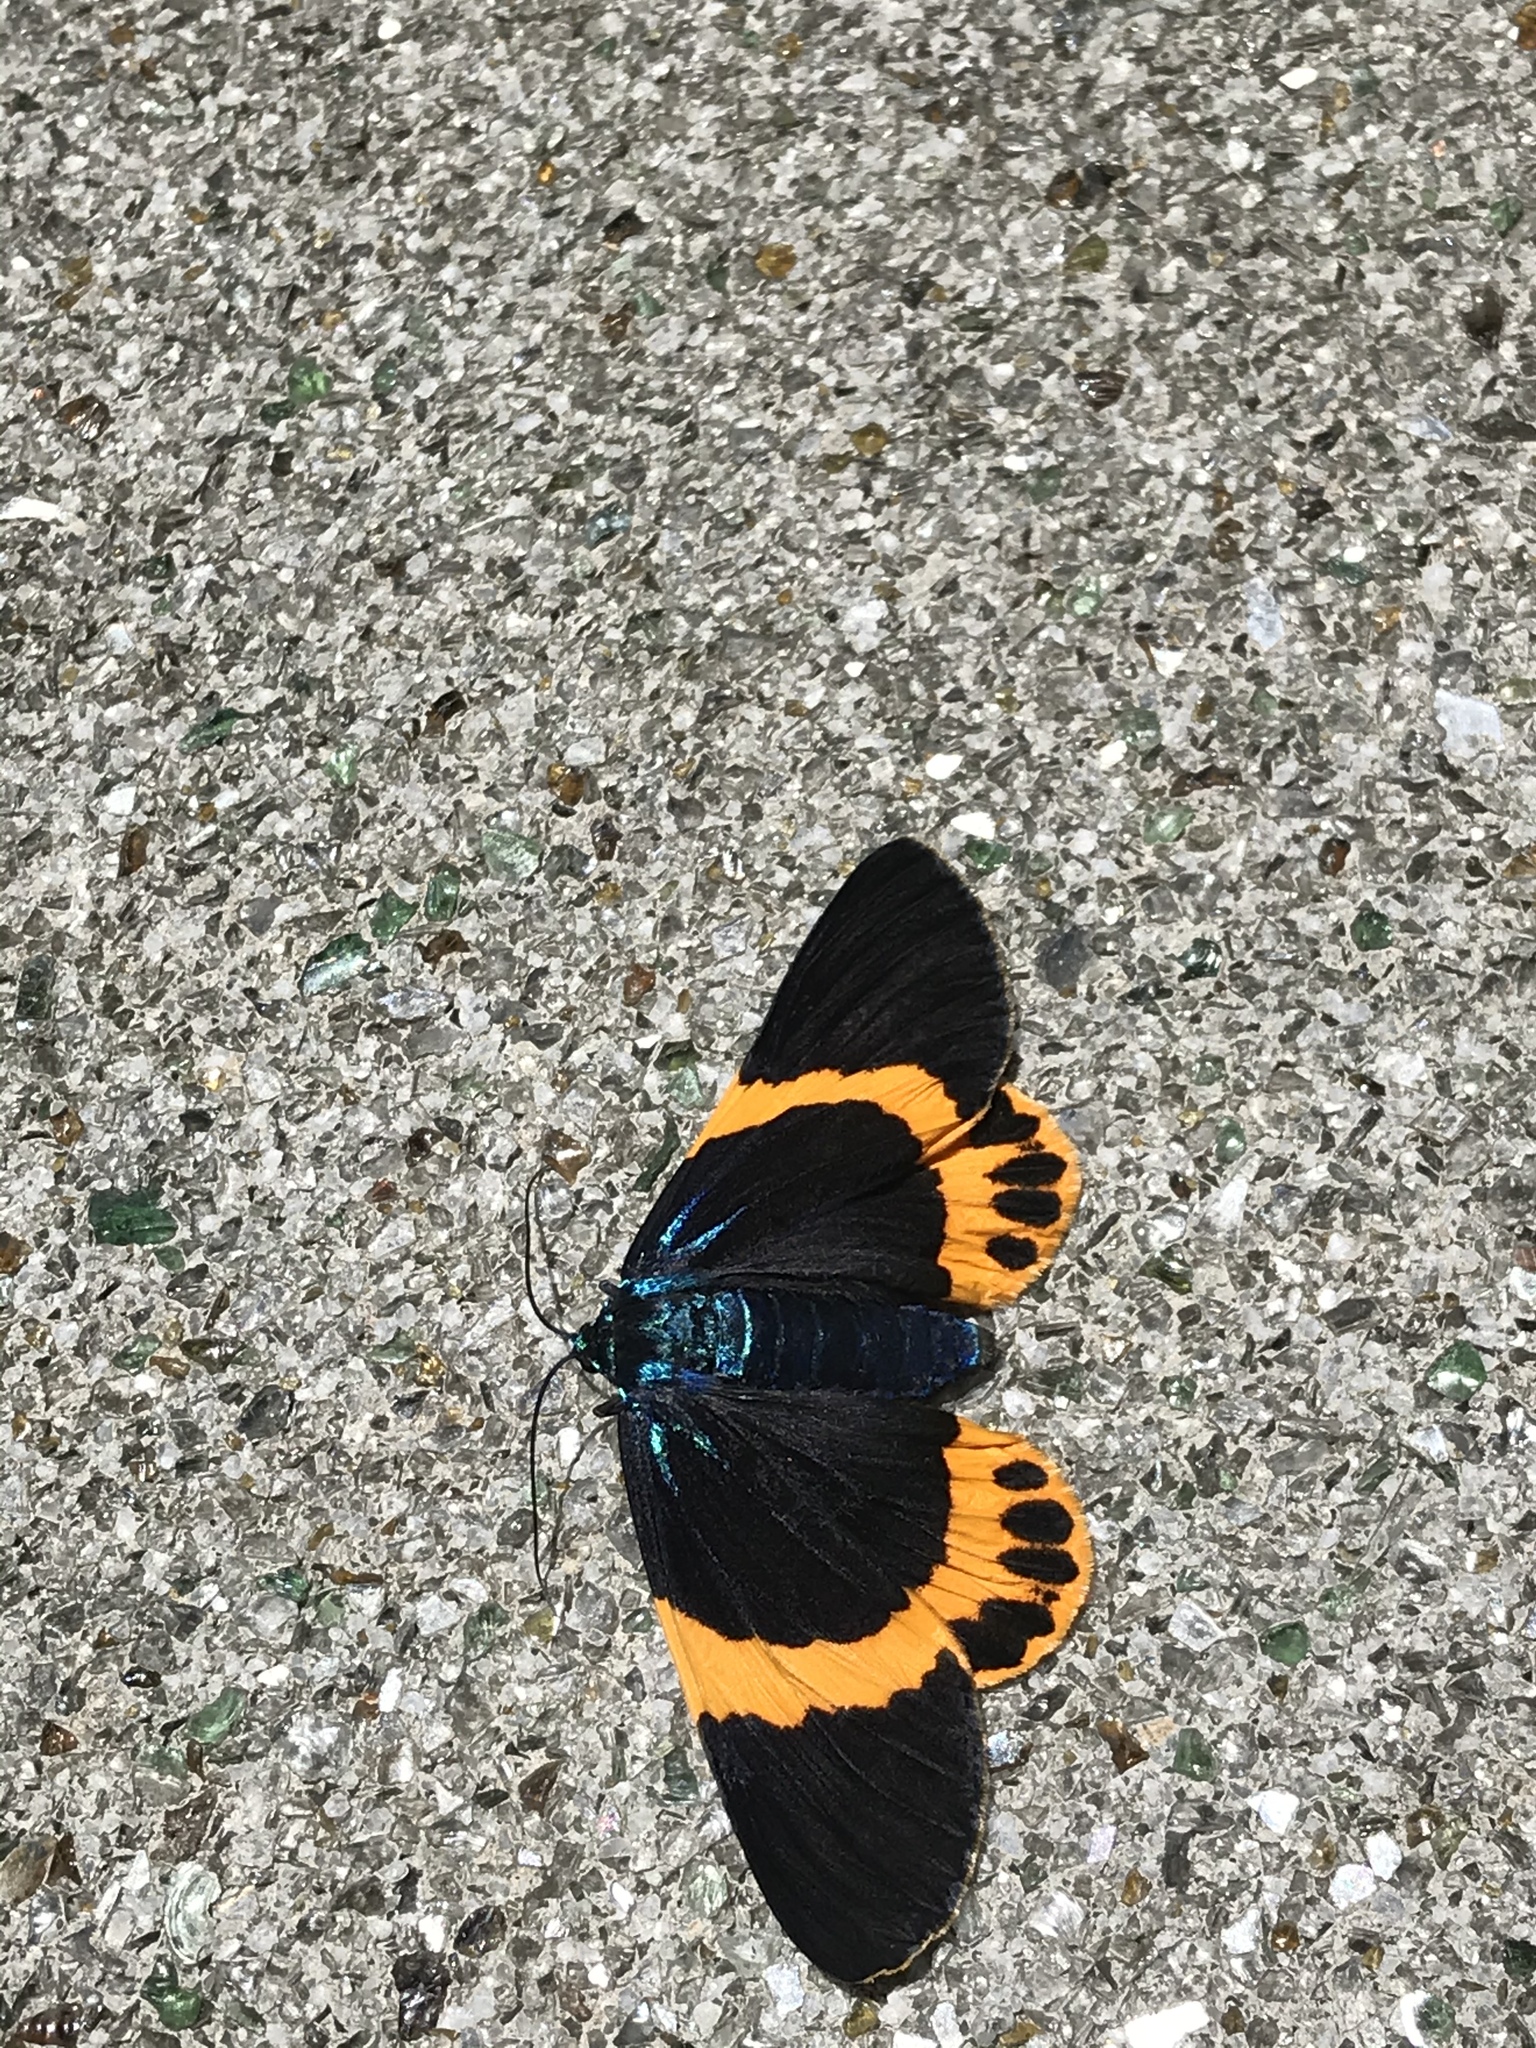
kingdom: Animalia
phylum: Arthropoda
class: Insecta
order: Lepidoptera
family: Geometridae
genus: Milionia
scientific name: Milionia basalis
